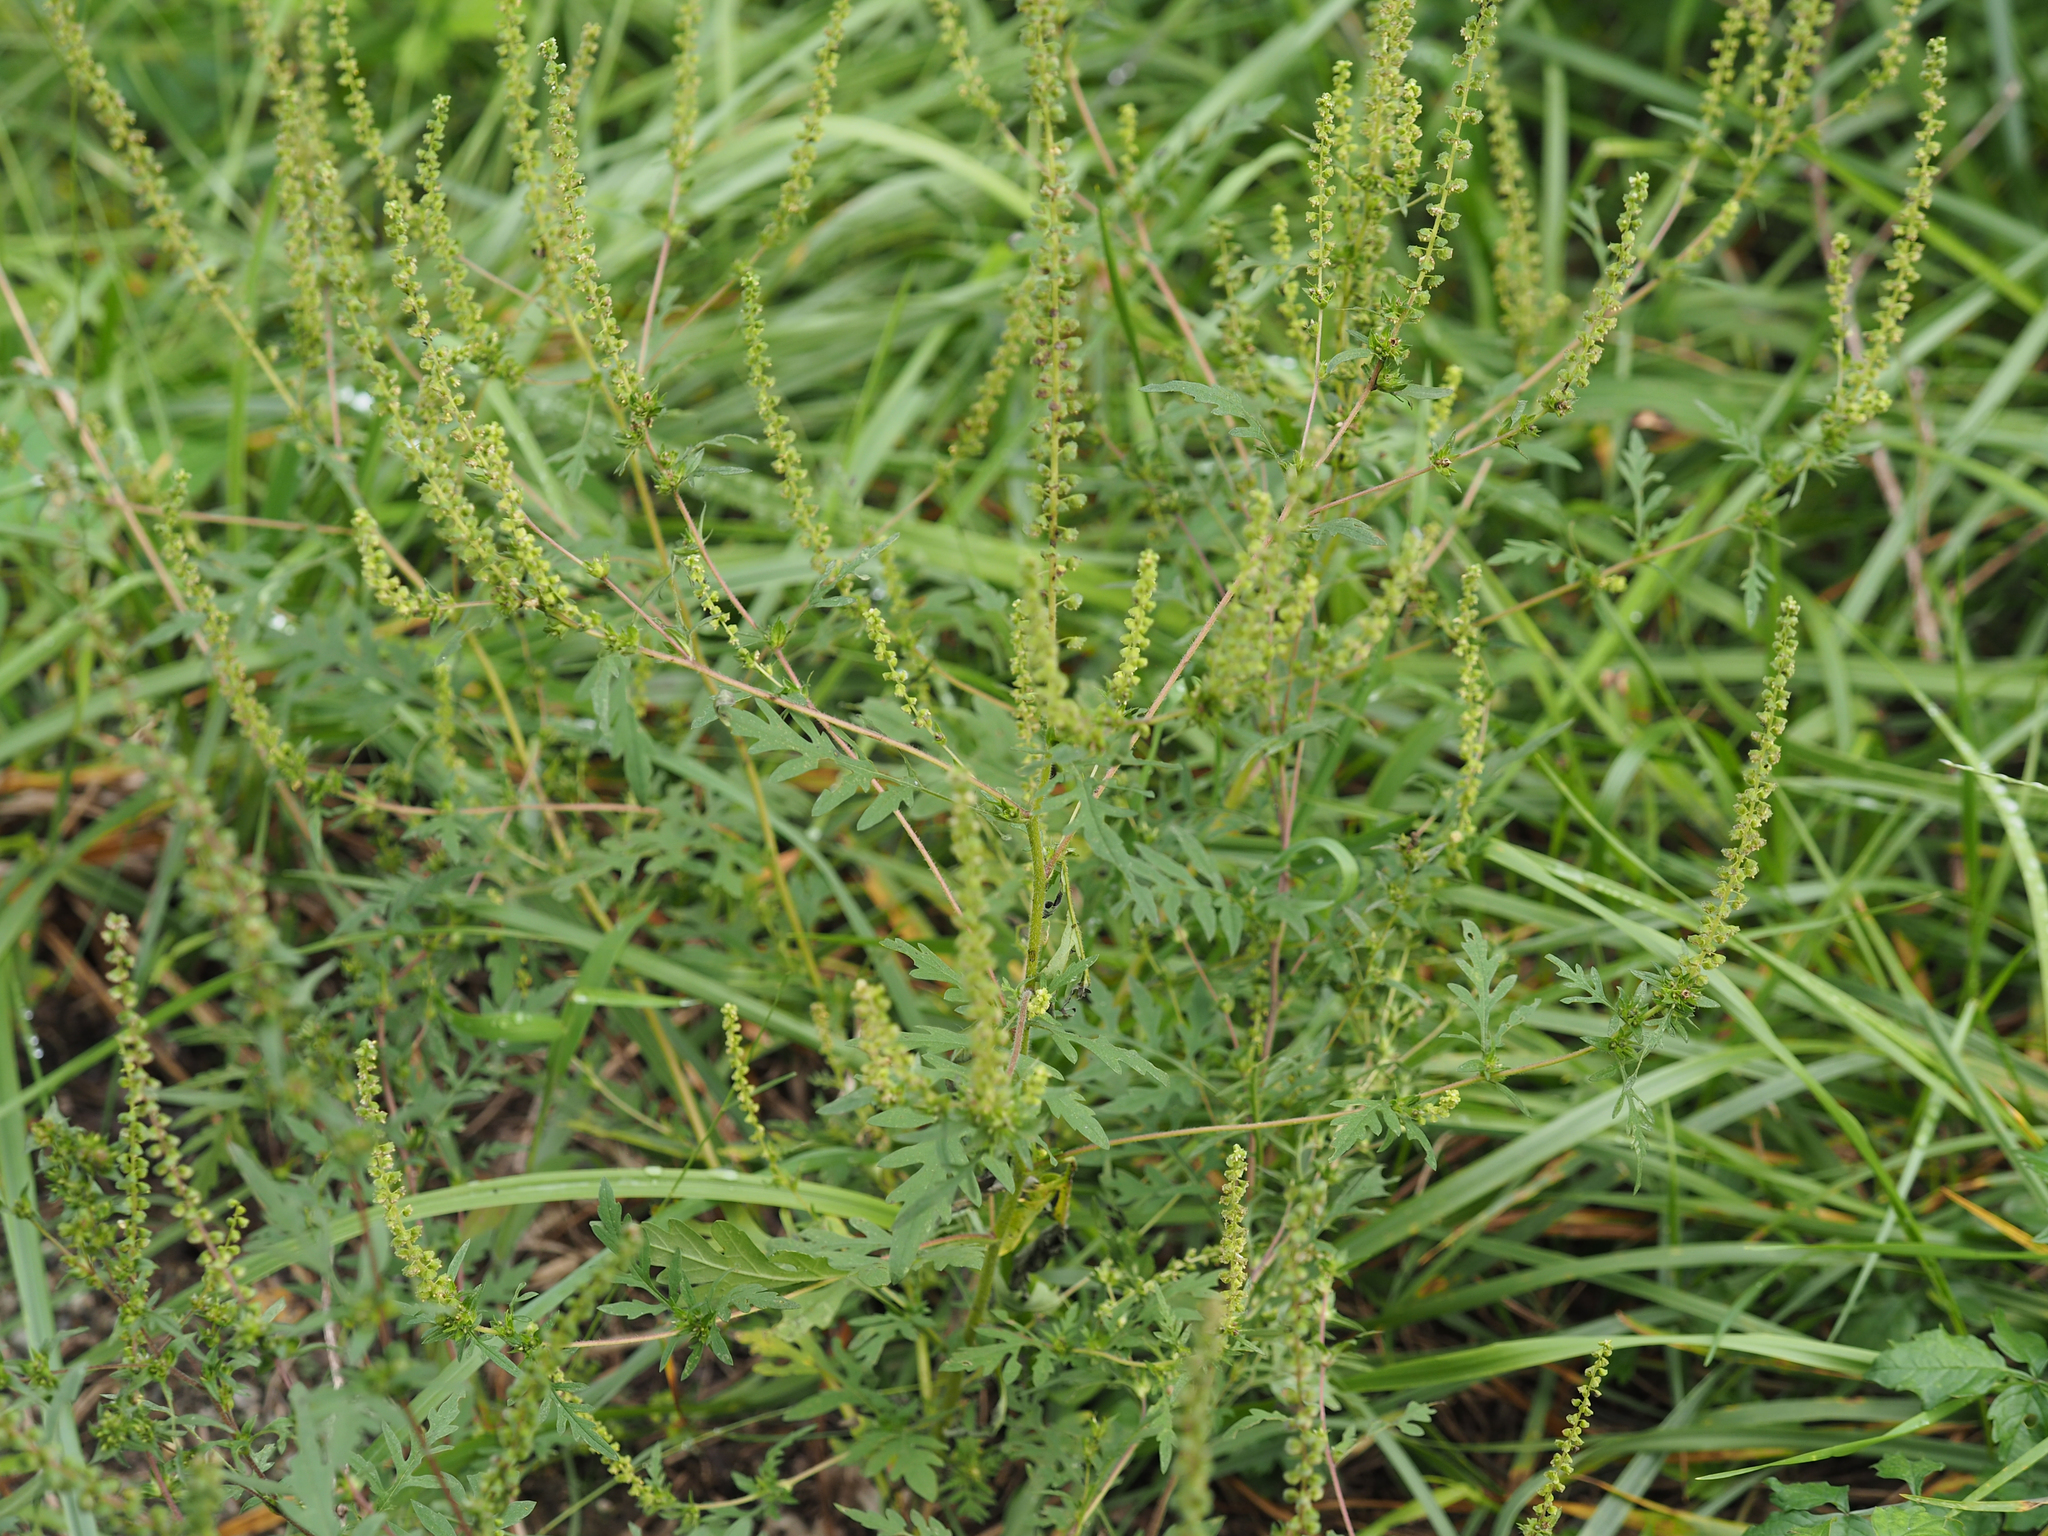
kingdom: Plantae
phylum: Tracheophyta
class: Magnoliopsida
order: Asterales
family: Asteraceae
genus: Ambrosia
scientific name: Ambrosia artemisiifolia
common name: Annual ragweed
